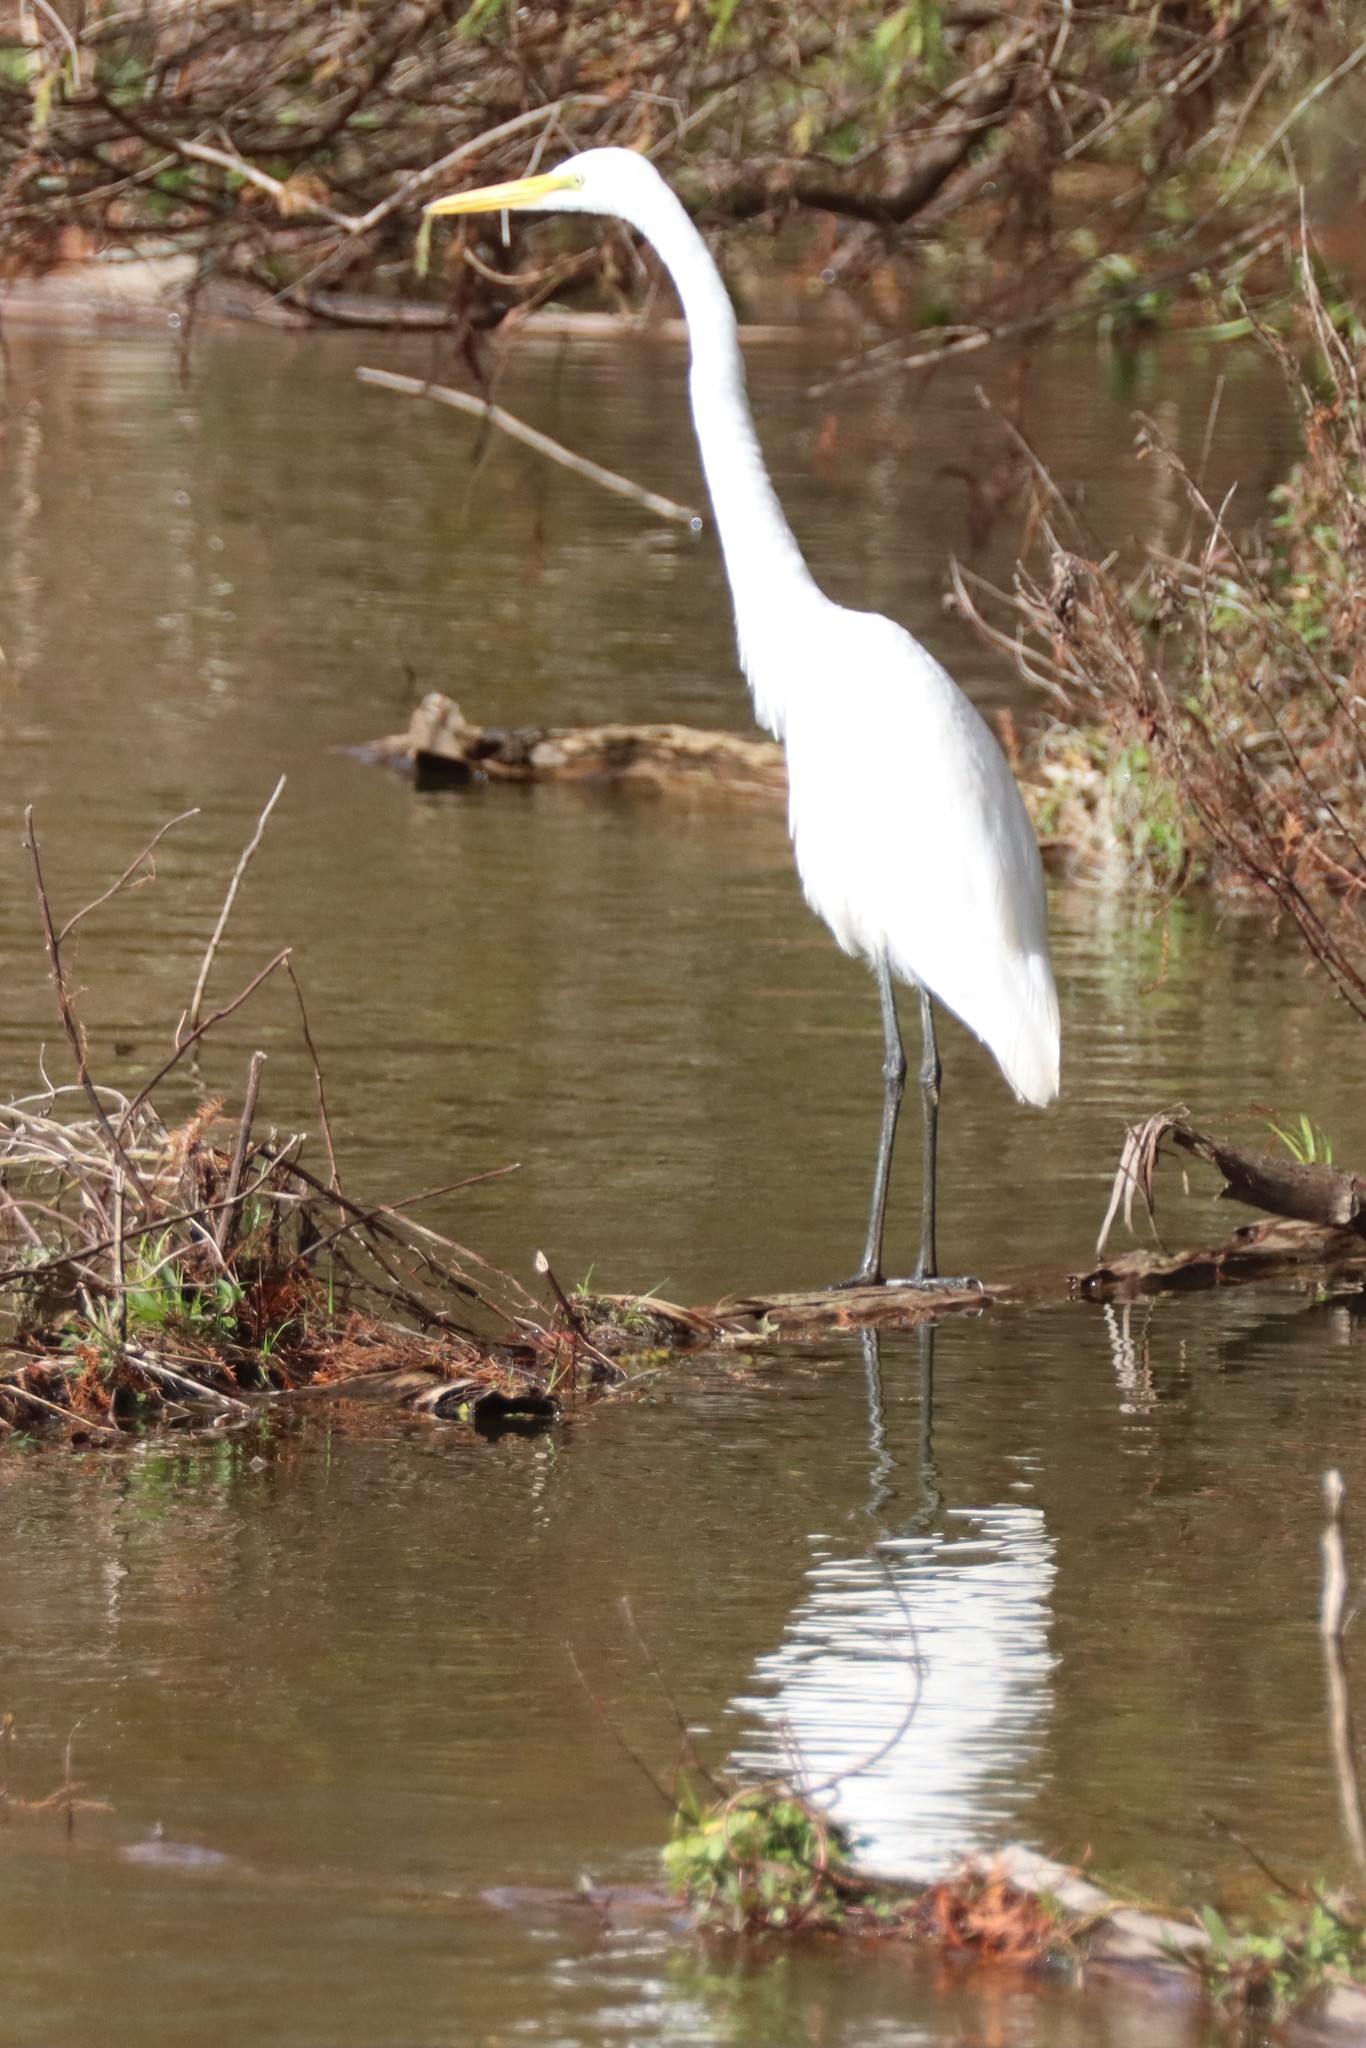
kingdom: Animalia
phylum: Chordata
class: Aves
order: Pelecaniformes
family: Ardeidae
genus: Ardea
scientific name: Ardea alba
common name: Great egret
